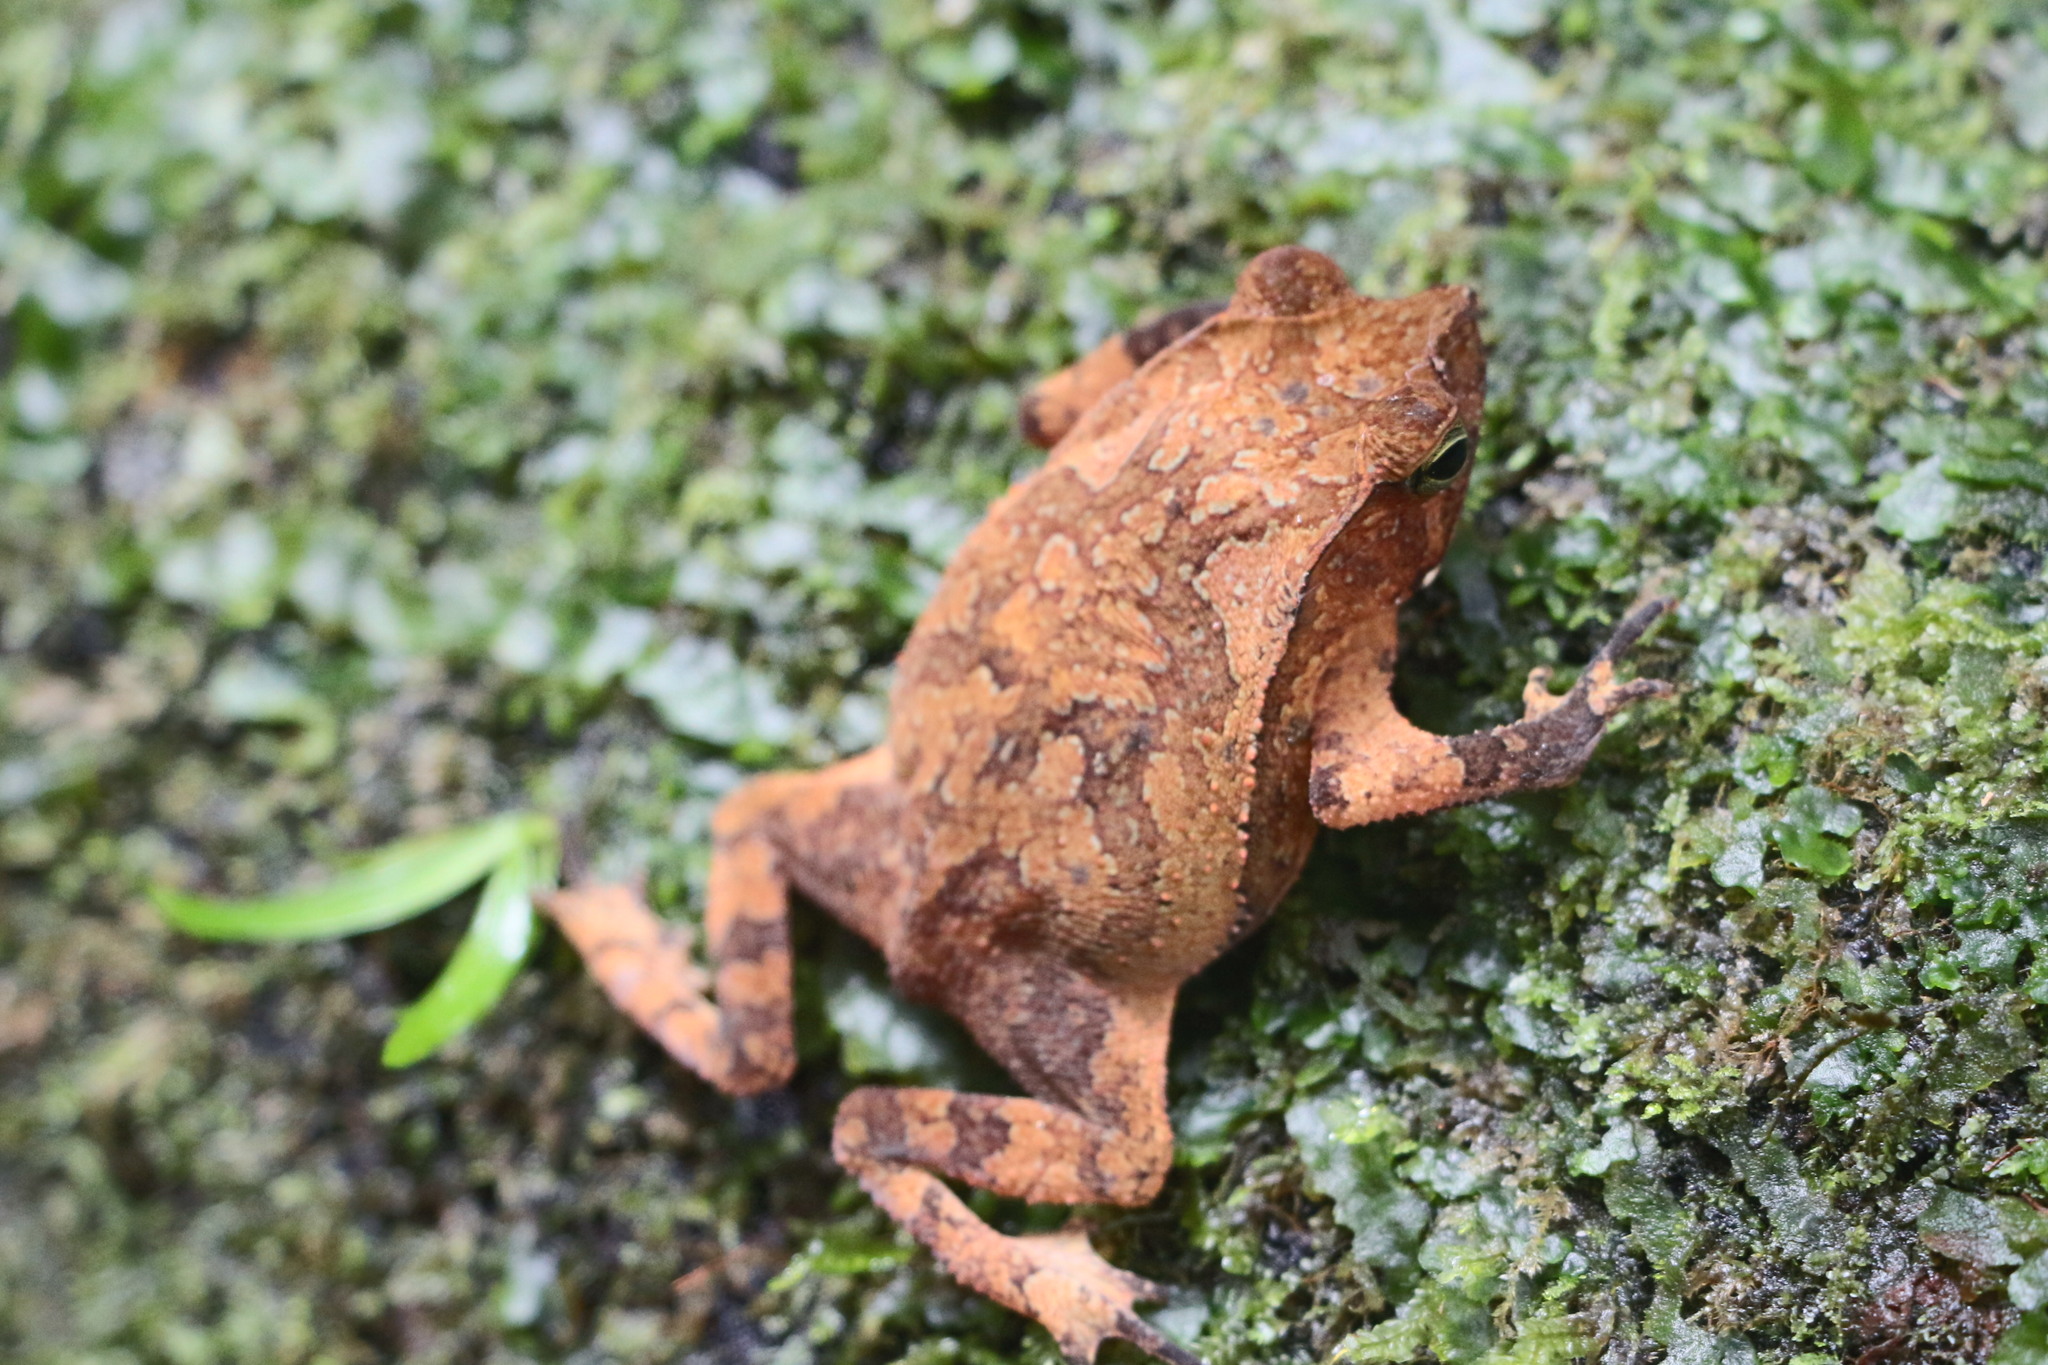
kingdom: Animalia
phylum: Chordata
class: Amphibia
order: Anura
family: Bufonidae
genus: Rhinella
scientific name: Rhinella margaritifera
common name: Mitred toad
